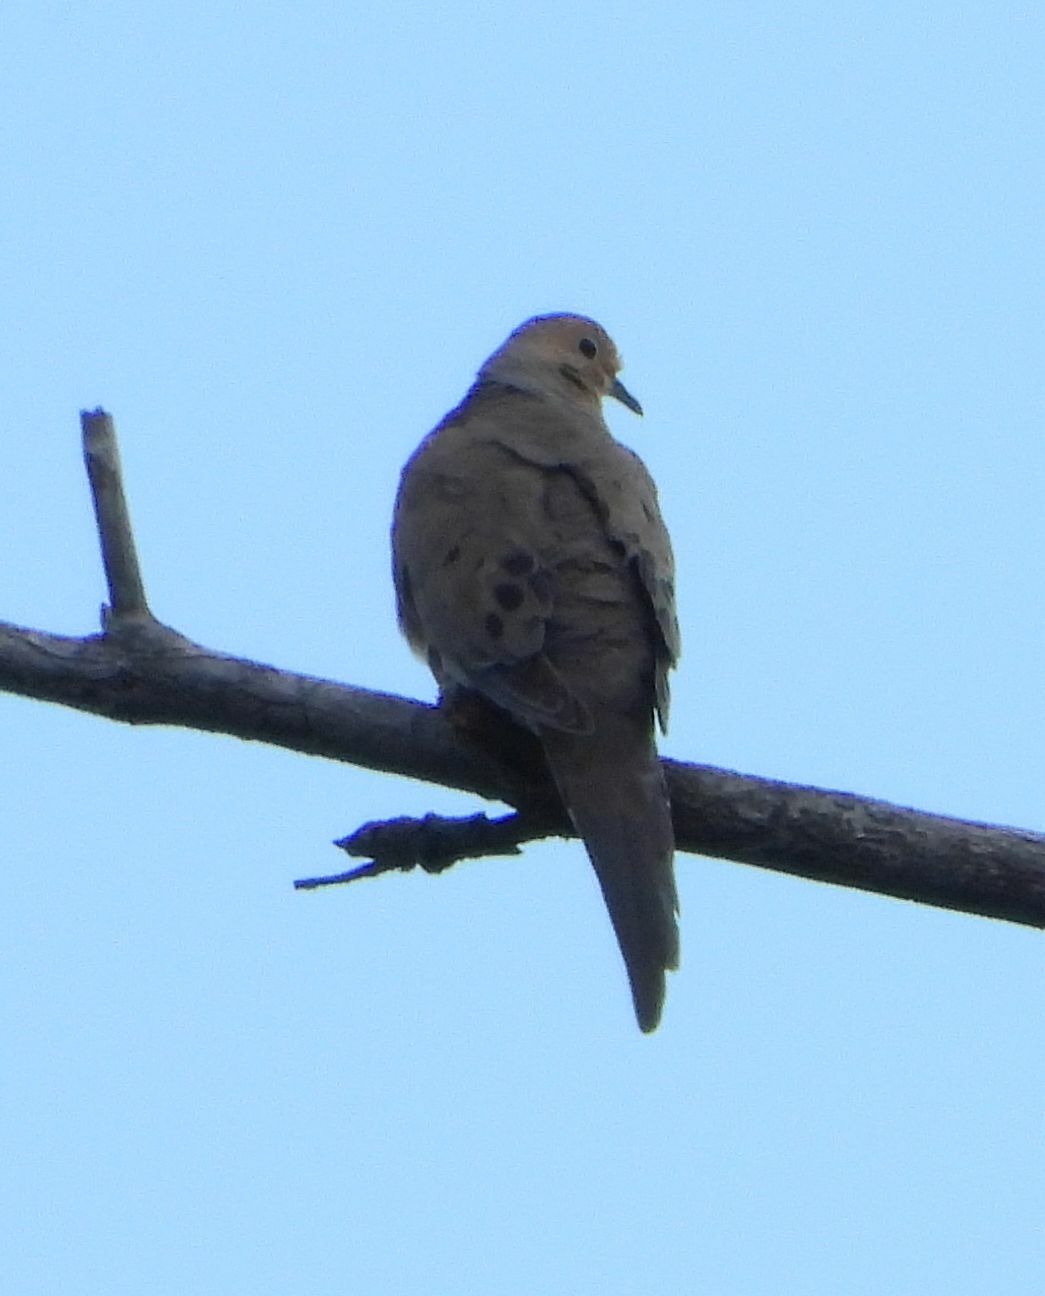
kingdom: Animalia
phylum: Chordata
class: Aves
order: Columbiformes
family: Columbidae
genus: Zenaida
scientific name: Zenaida macroura
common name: Mourning dove
